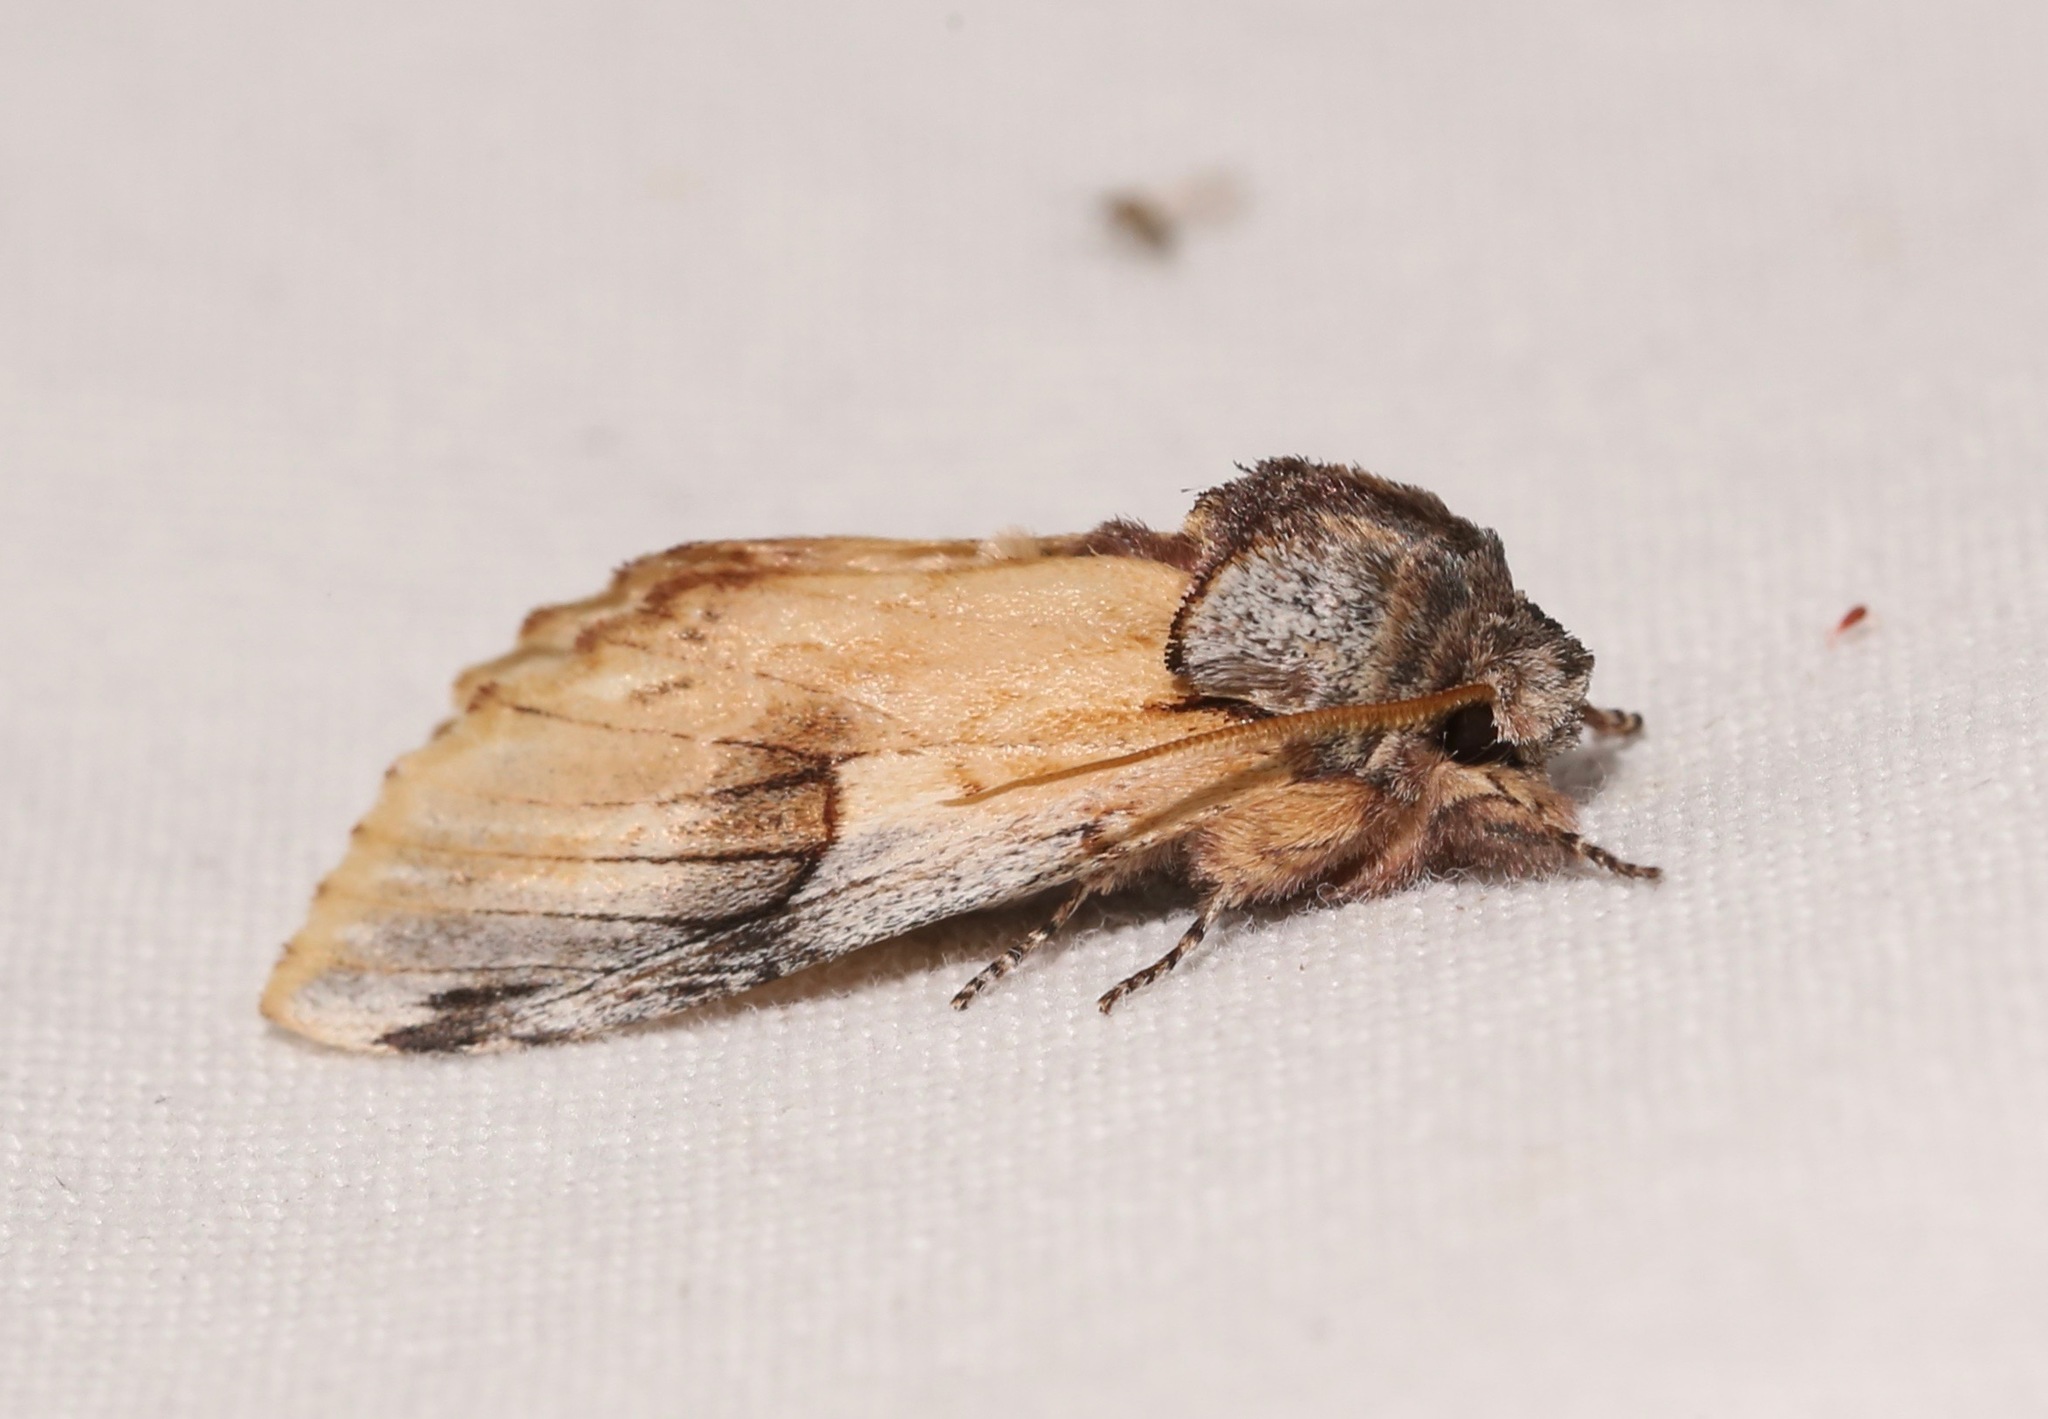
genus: Ianassa
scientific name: Ianassa
